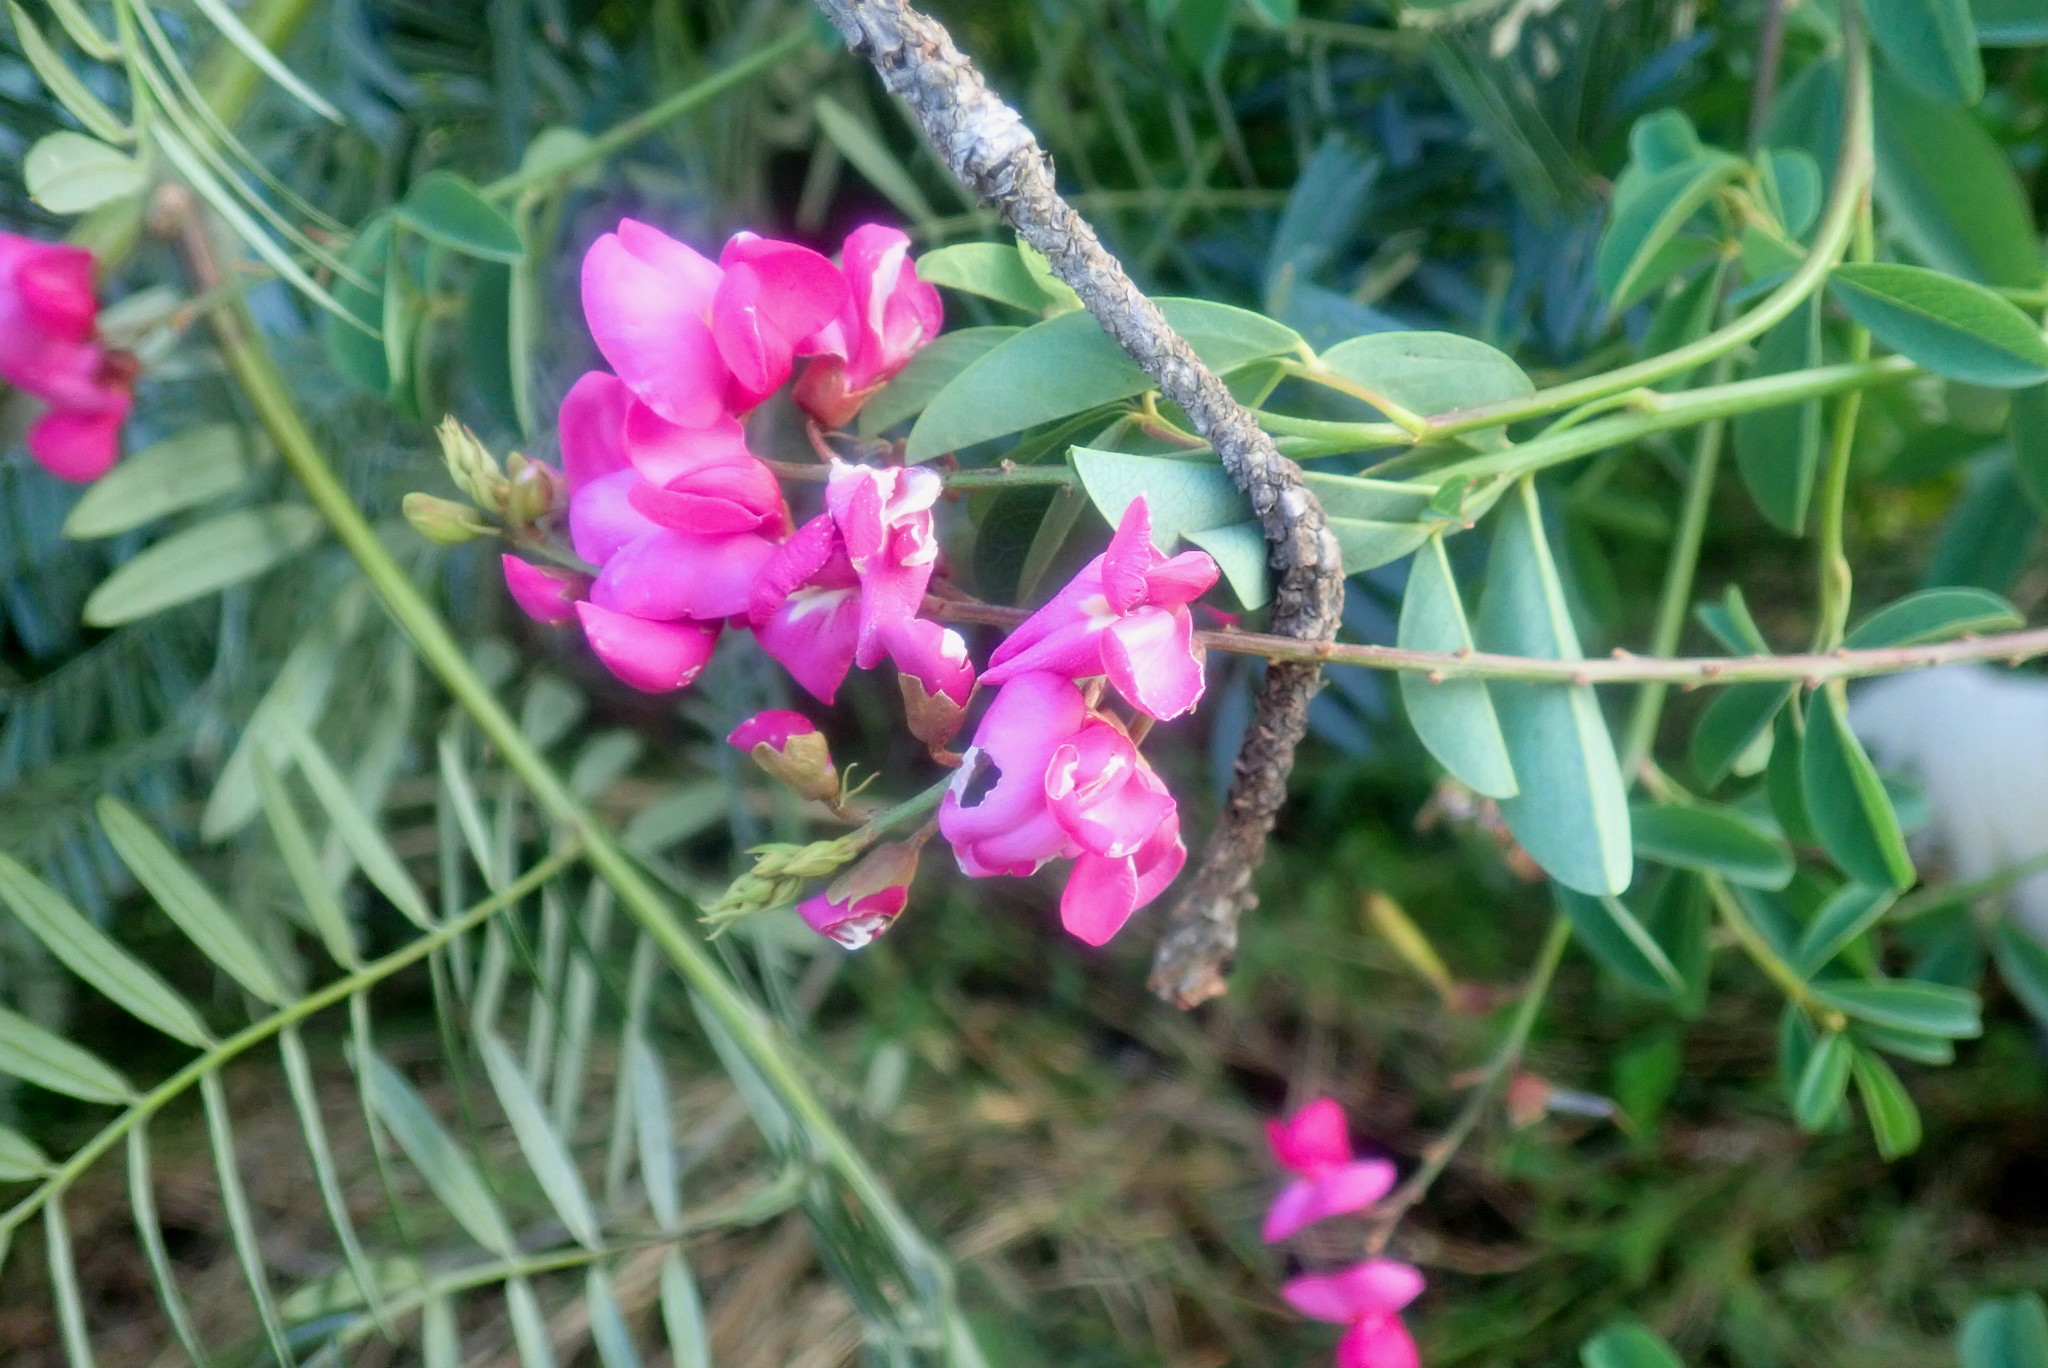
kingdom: Plantae
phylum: Tracheophyta
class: Magnoliopsida
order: Fabales
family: Fabaceae
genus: Hypocalyptus
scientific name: Hypocalyptus coluteoides
